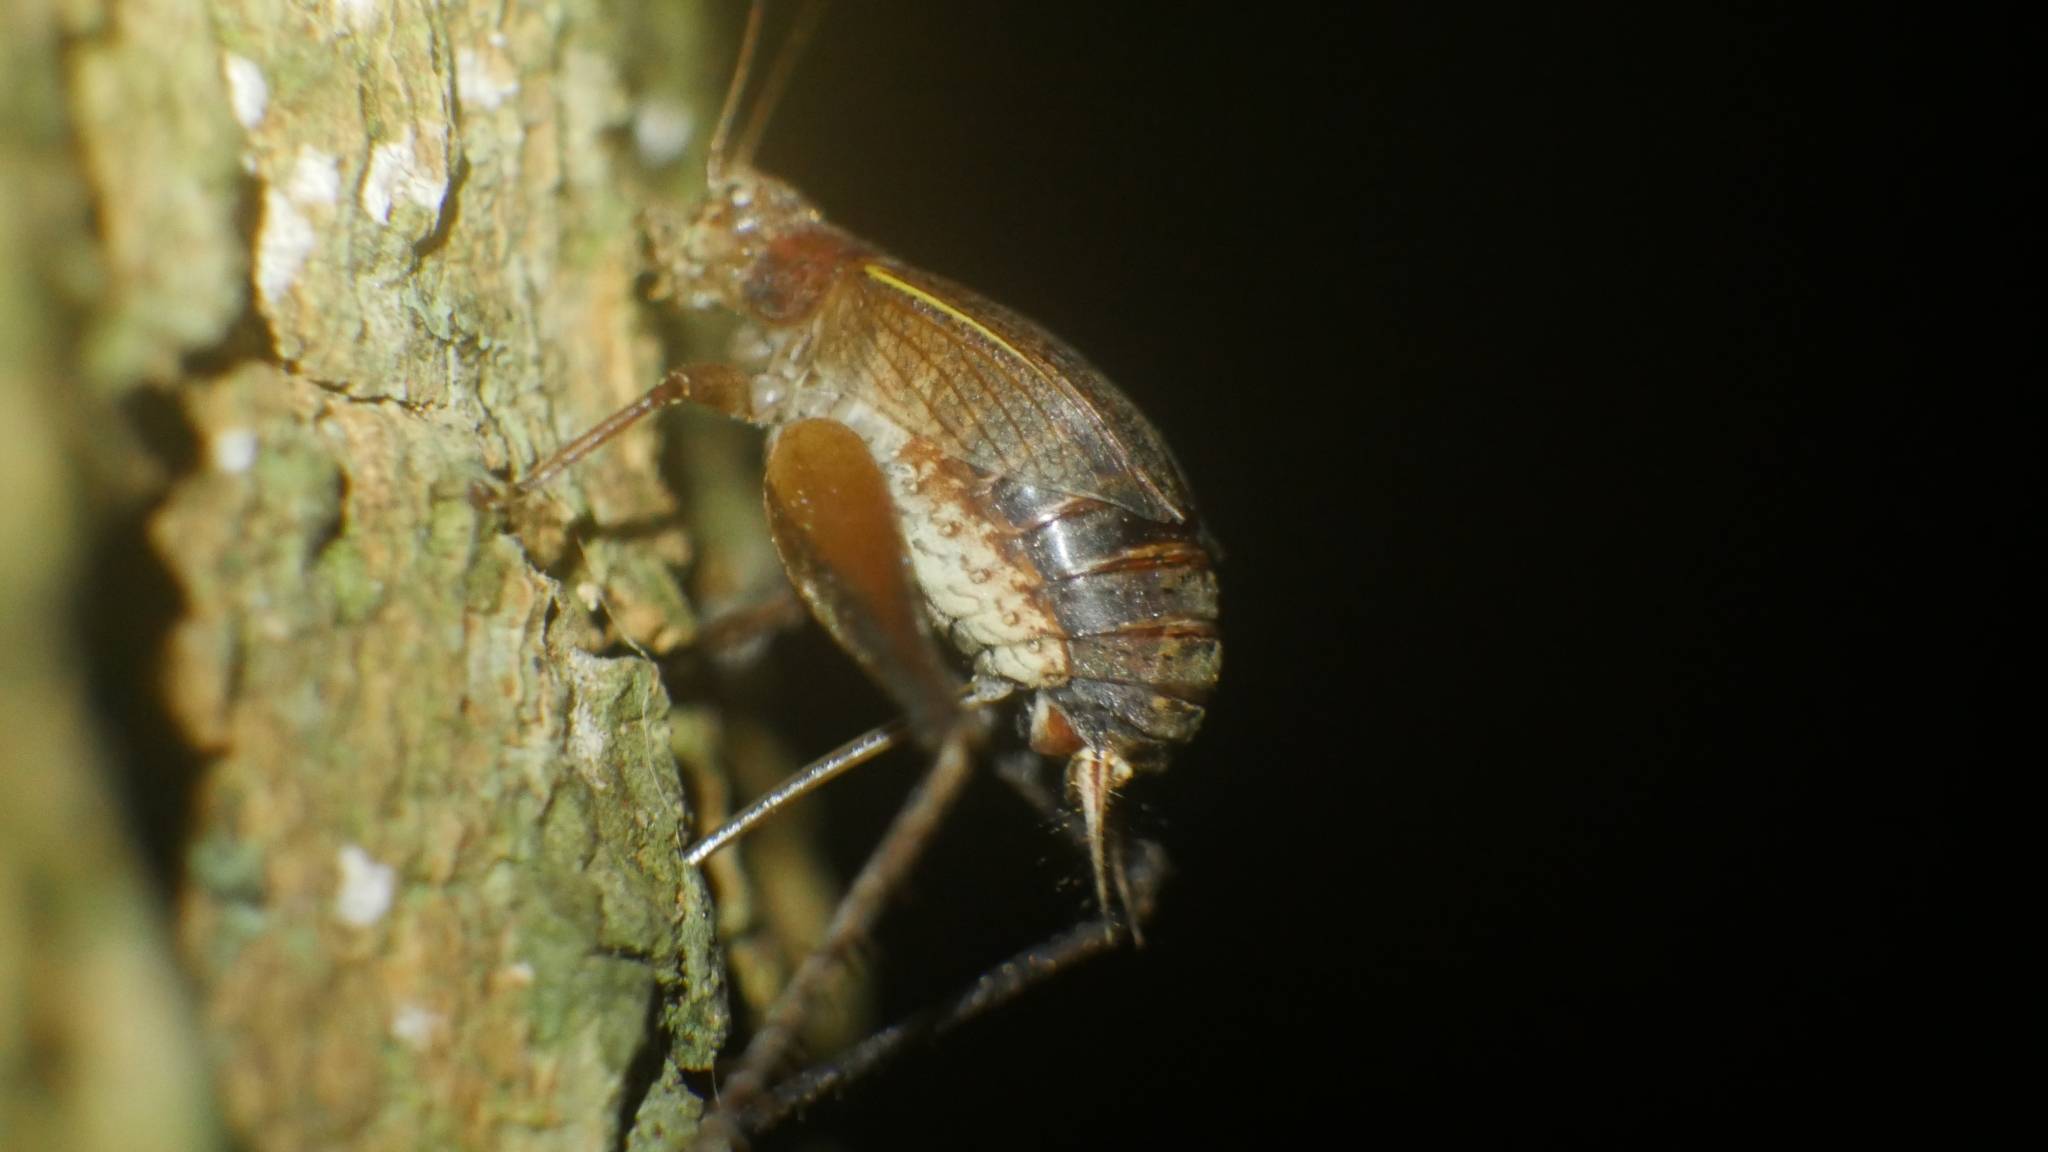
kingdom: Animalia
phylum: Arthropoda
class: Insecta
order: Orthoptera
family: Gryllidae
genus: Hapithus
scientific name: Hapithus agitator
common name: Restless bush cricket
